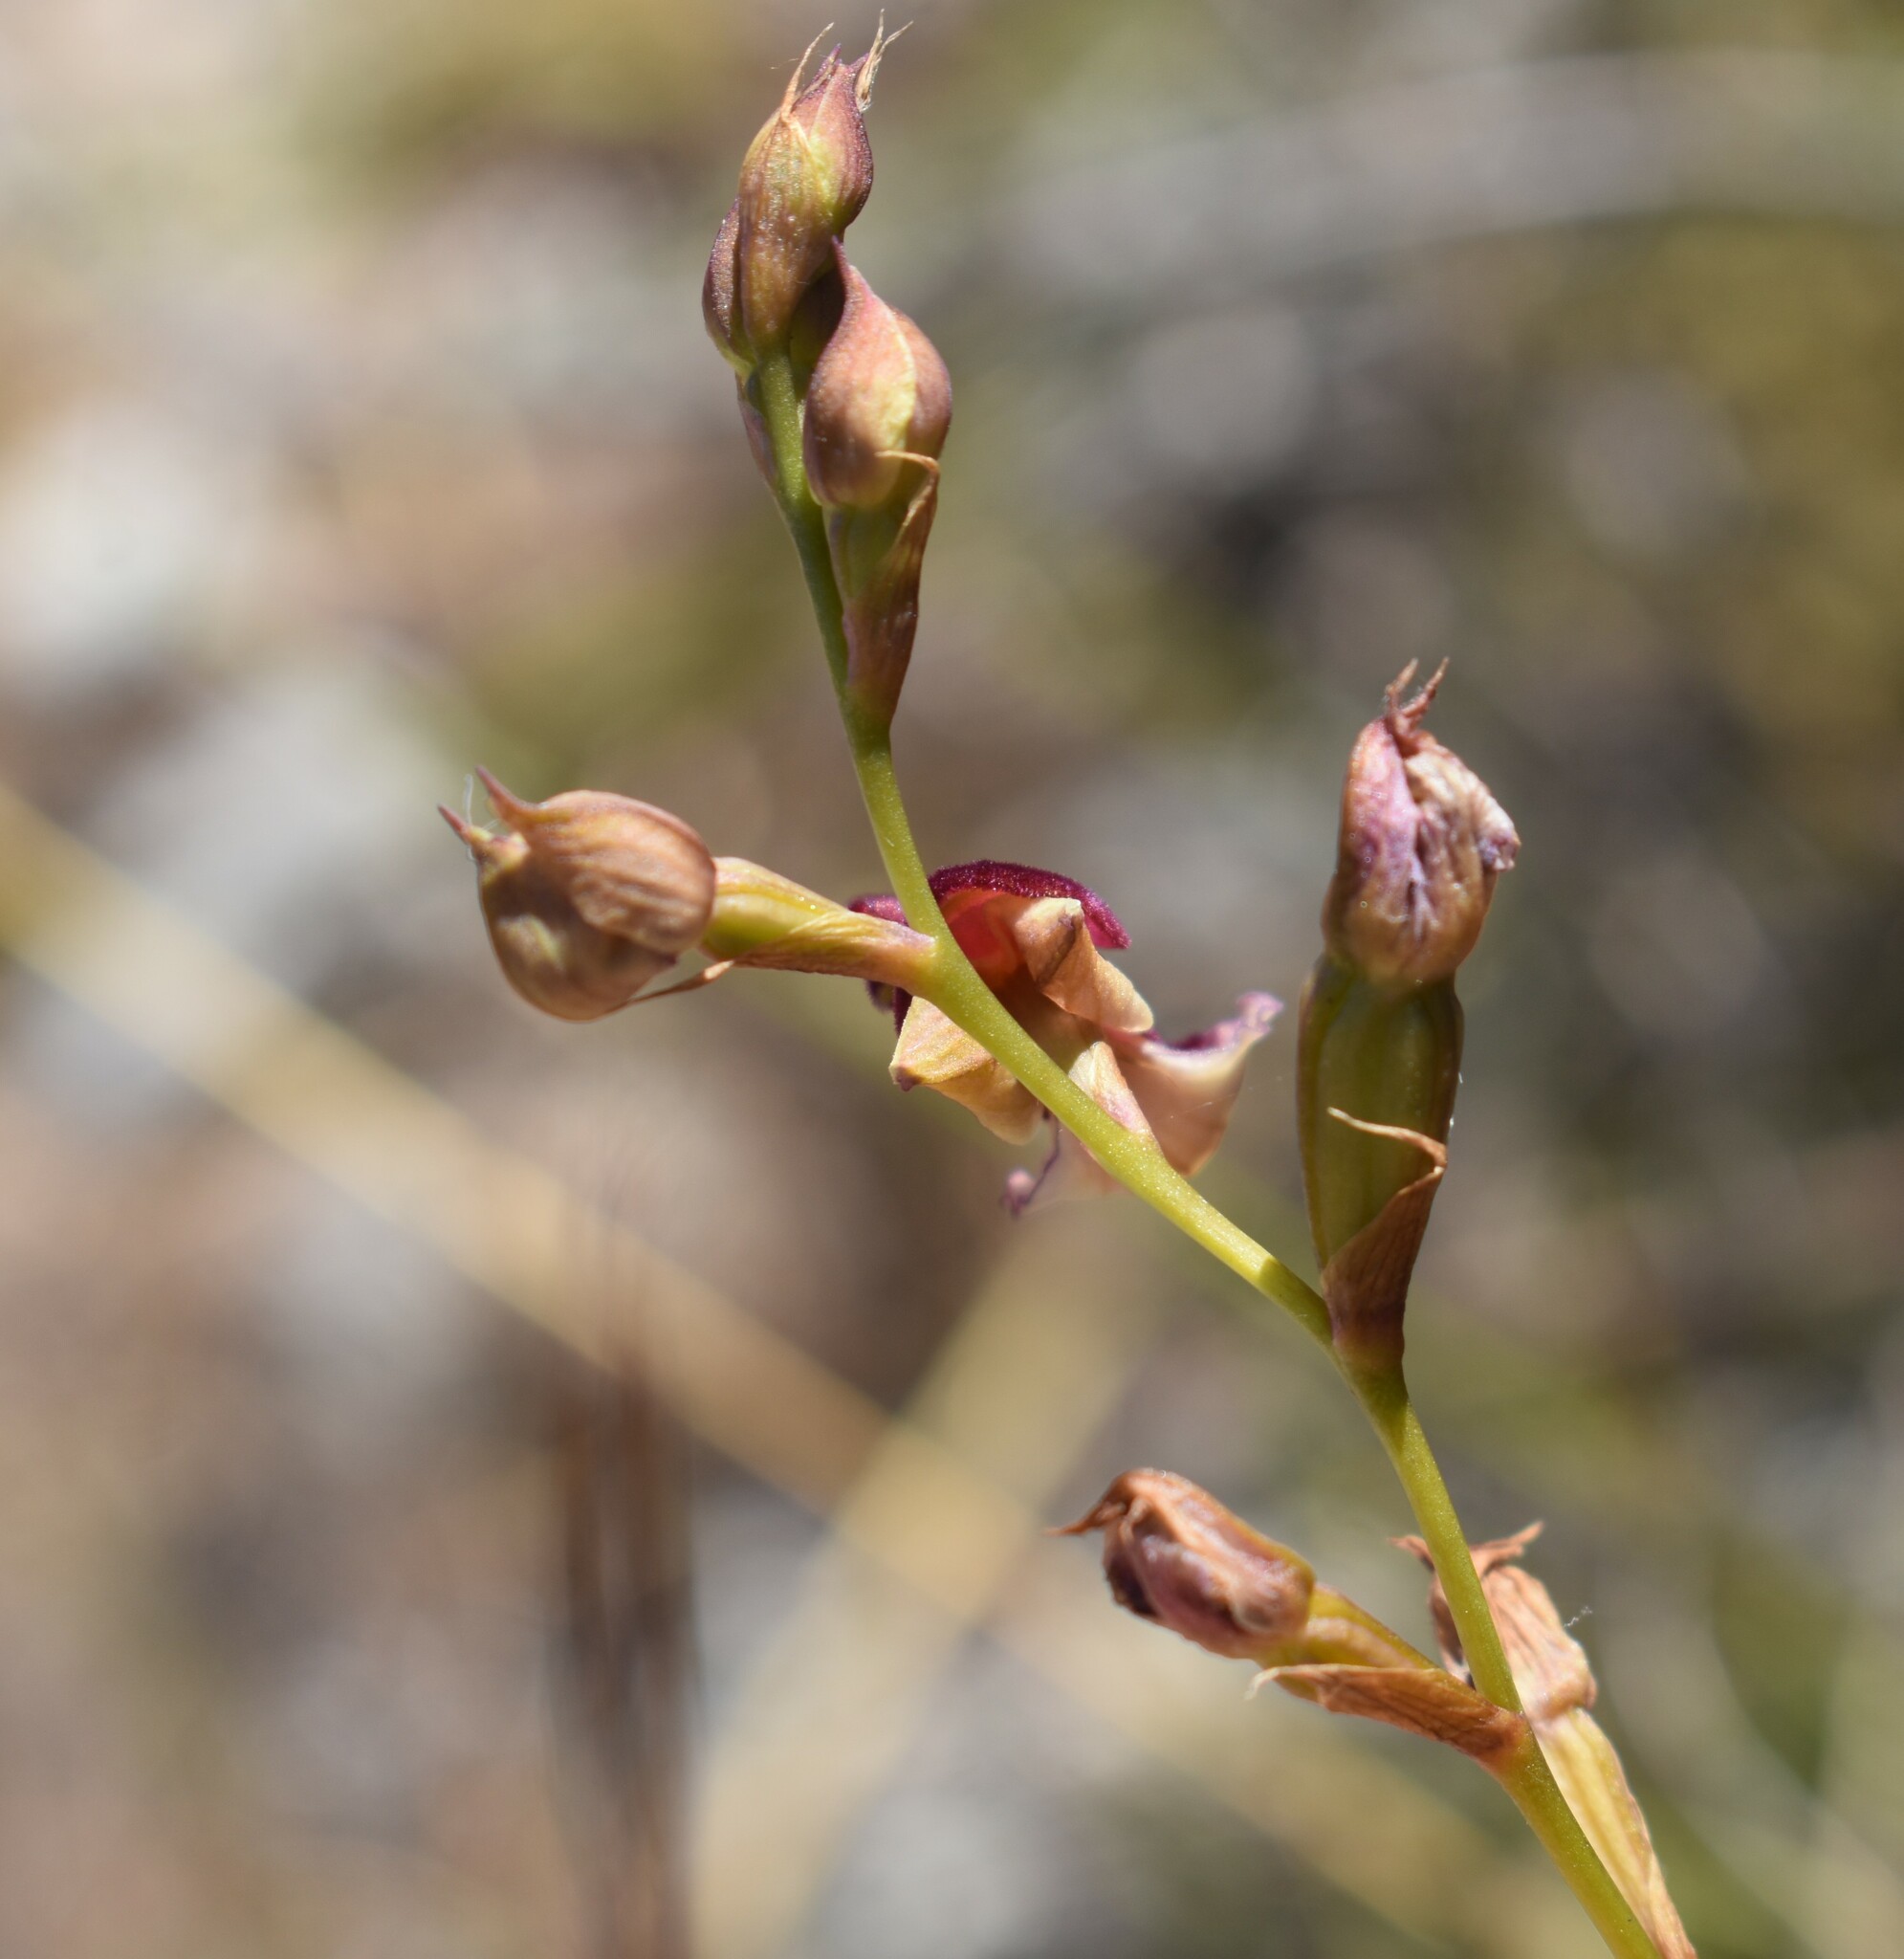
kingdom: Plantae
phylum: Tracheophyta
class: Liliopsida
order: Asparagales
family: Orchidaceae
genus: Disa
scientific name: Disa newdigateae
